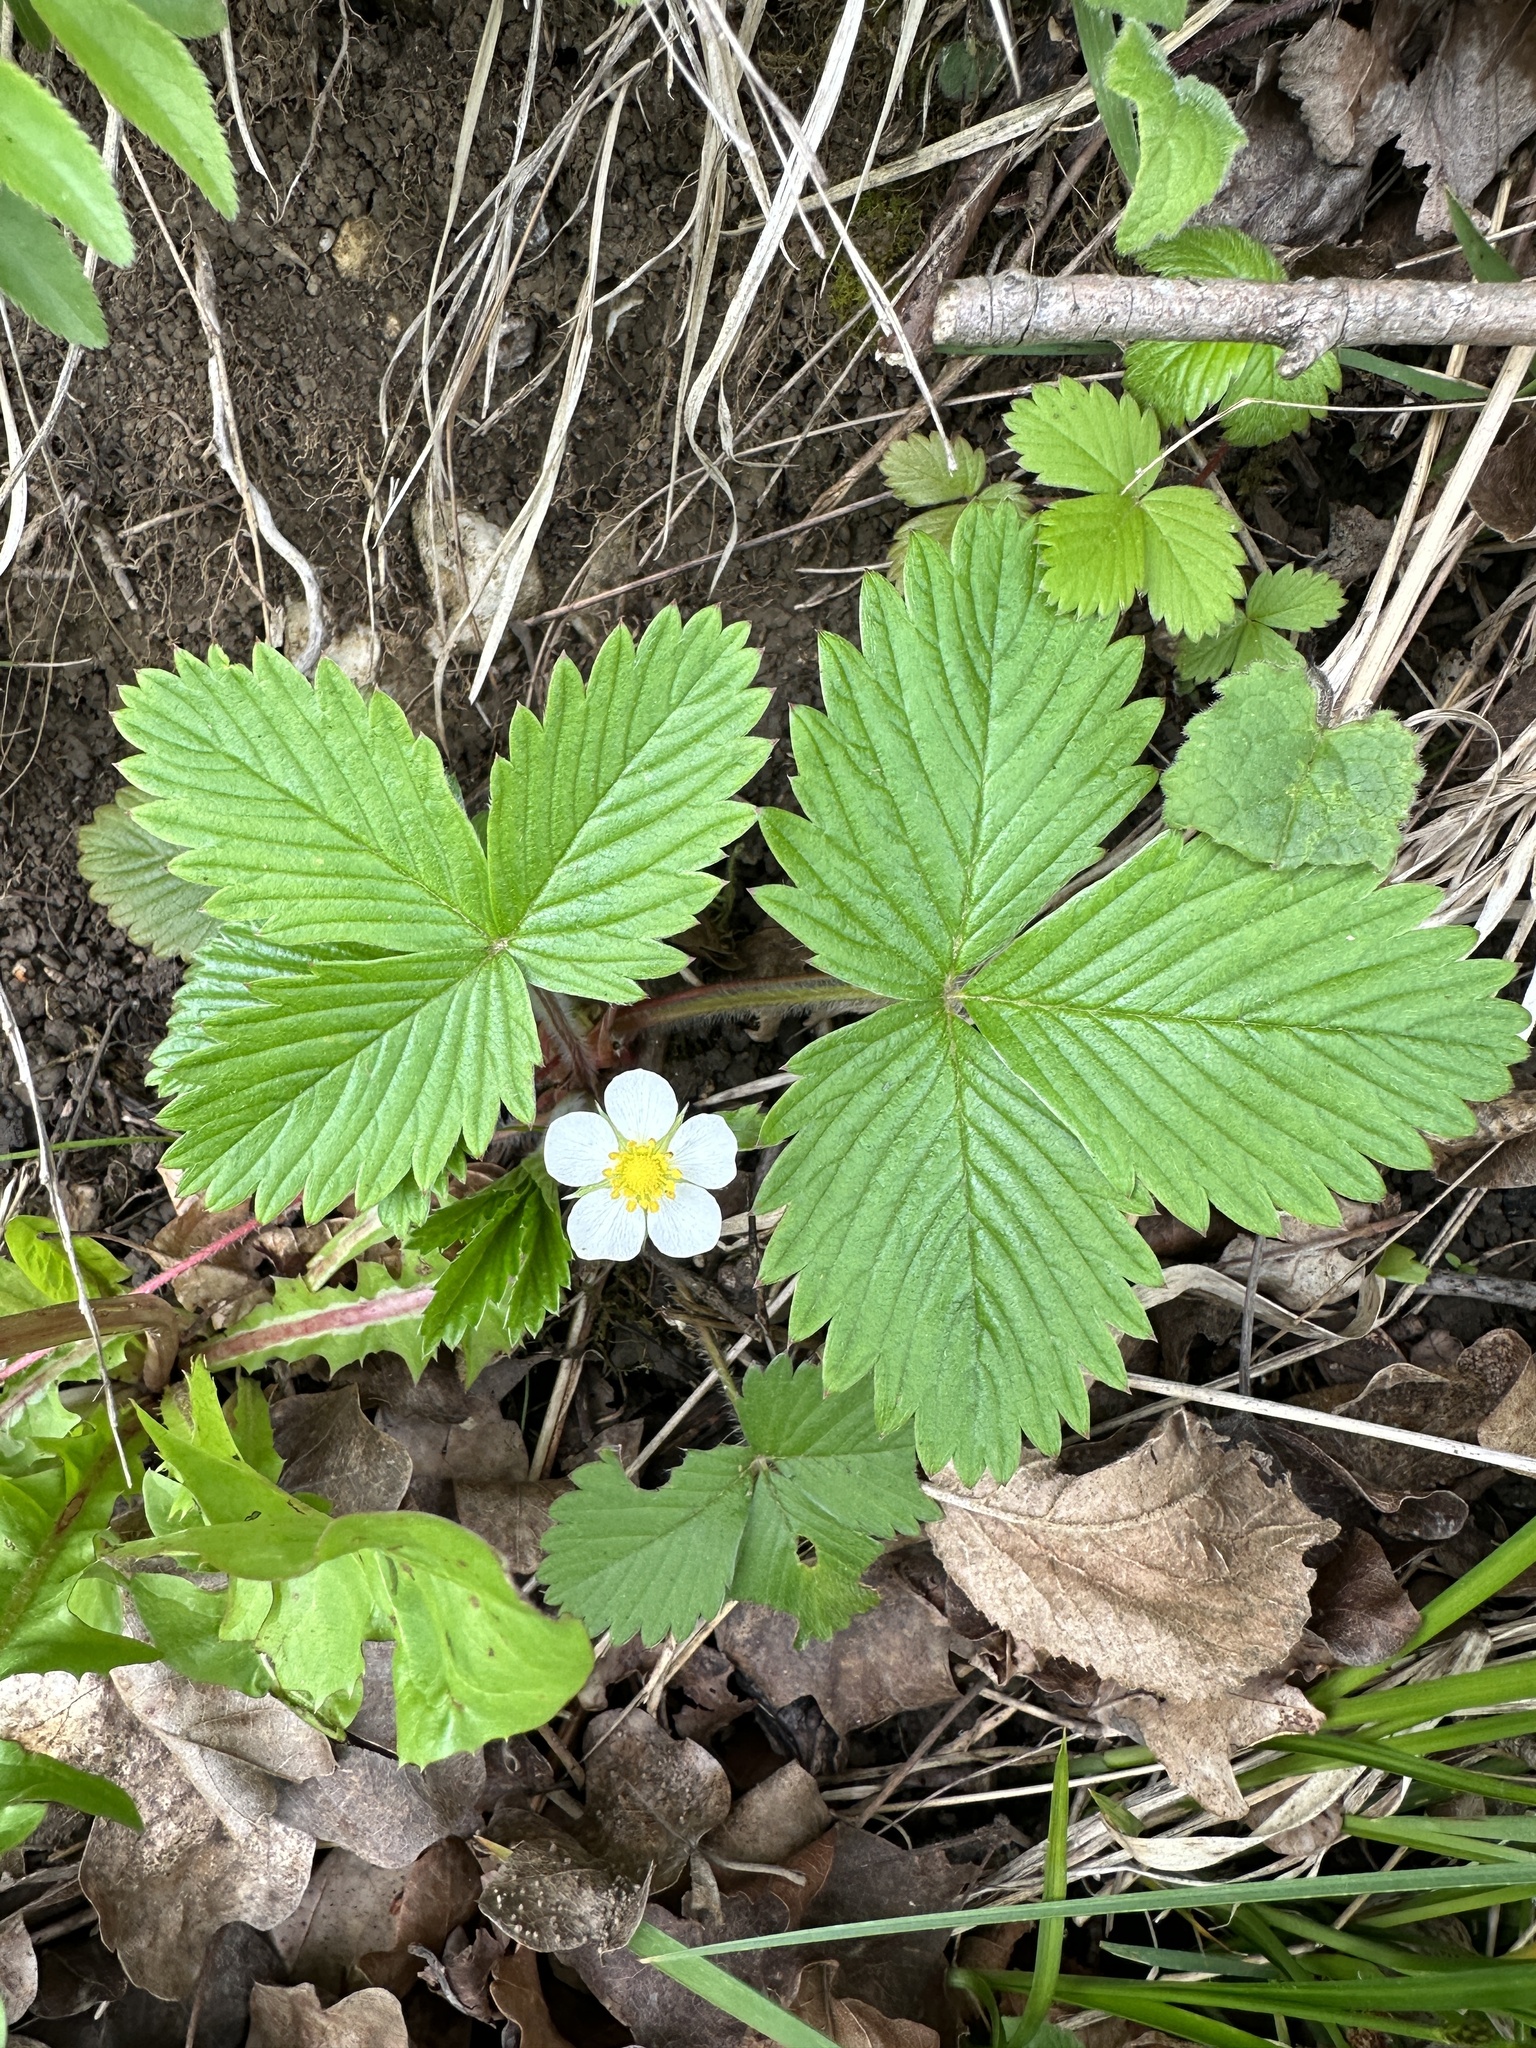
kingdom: Plantae
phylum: Tracheophyta
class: Magnoliopsida
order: Rosales
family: Rosaceae
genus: Fragaria
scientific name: Fragaria vesca
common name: Wild strawberry
